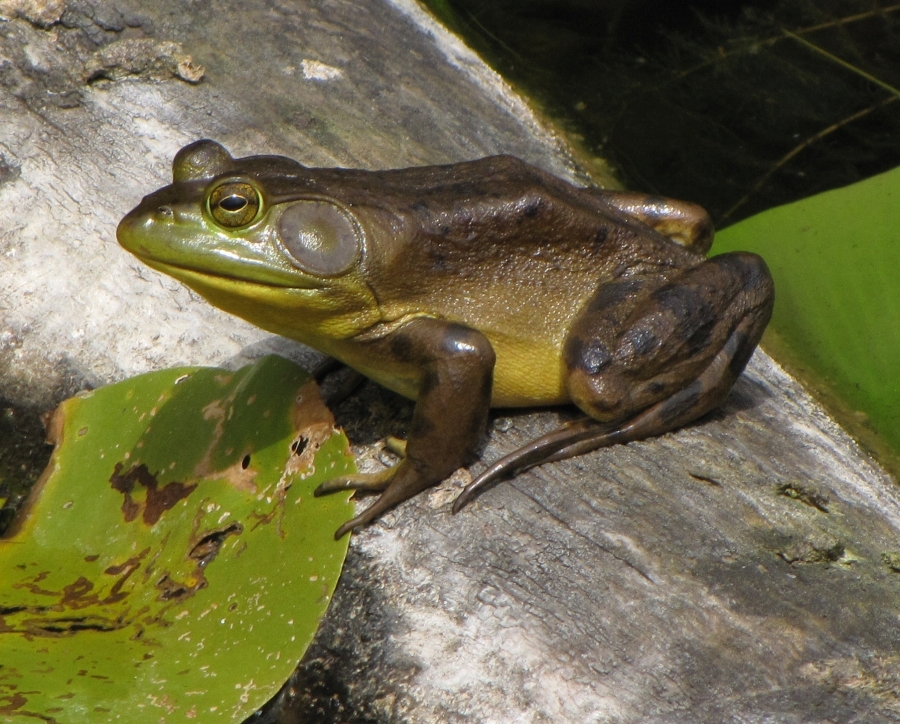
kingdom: Animalia
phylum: Chordata
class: Amphibia
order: Anura
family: Ranidae
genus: Lithobates
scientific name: Lithobates catesbeianus
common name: American bullfrog
